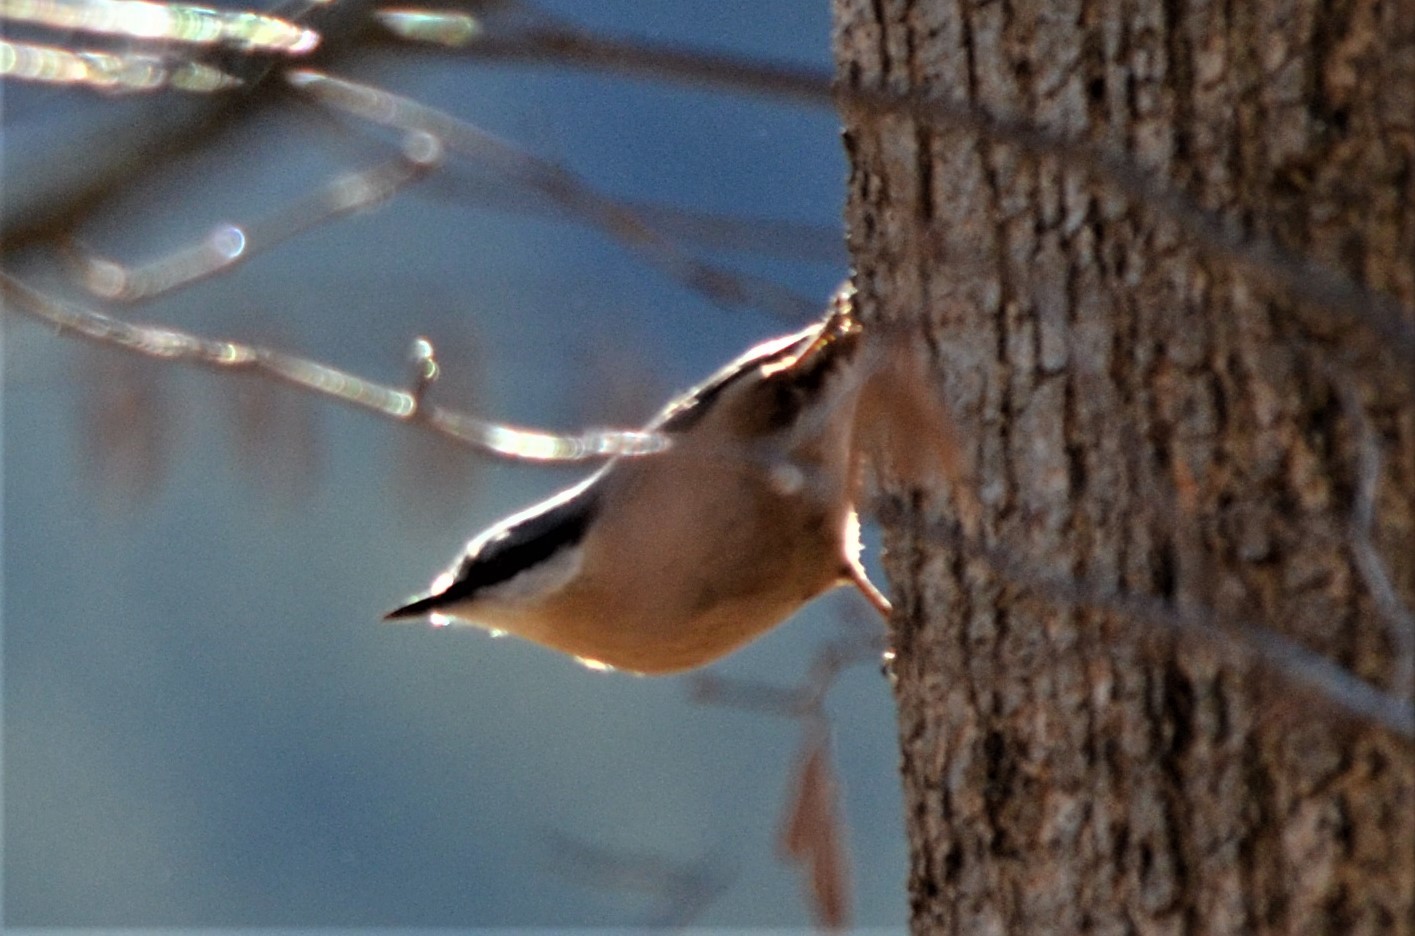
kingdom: Animalia
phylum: Chordata
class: Aves
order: Passeriformes
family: Sittidae
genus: Sitta
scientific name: Sitta europaea
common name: Eurasian nuthatch
